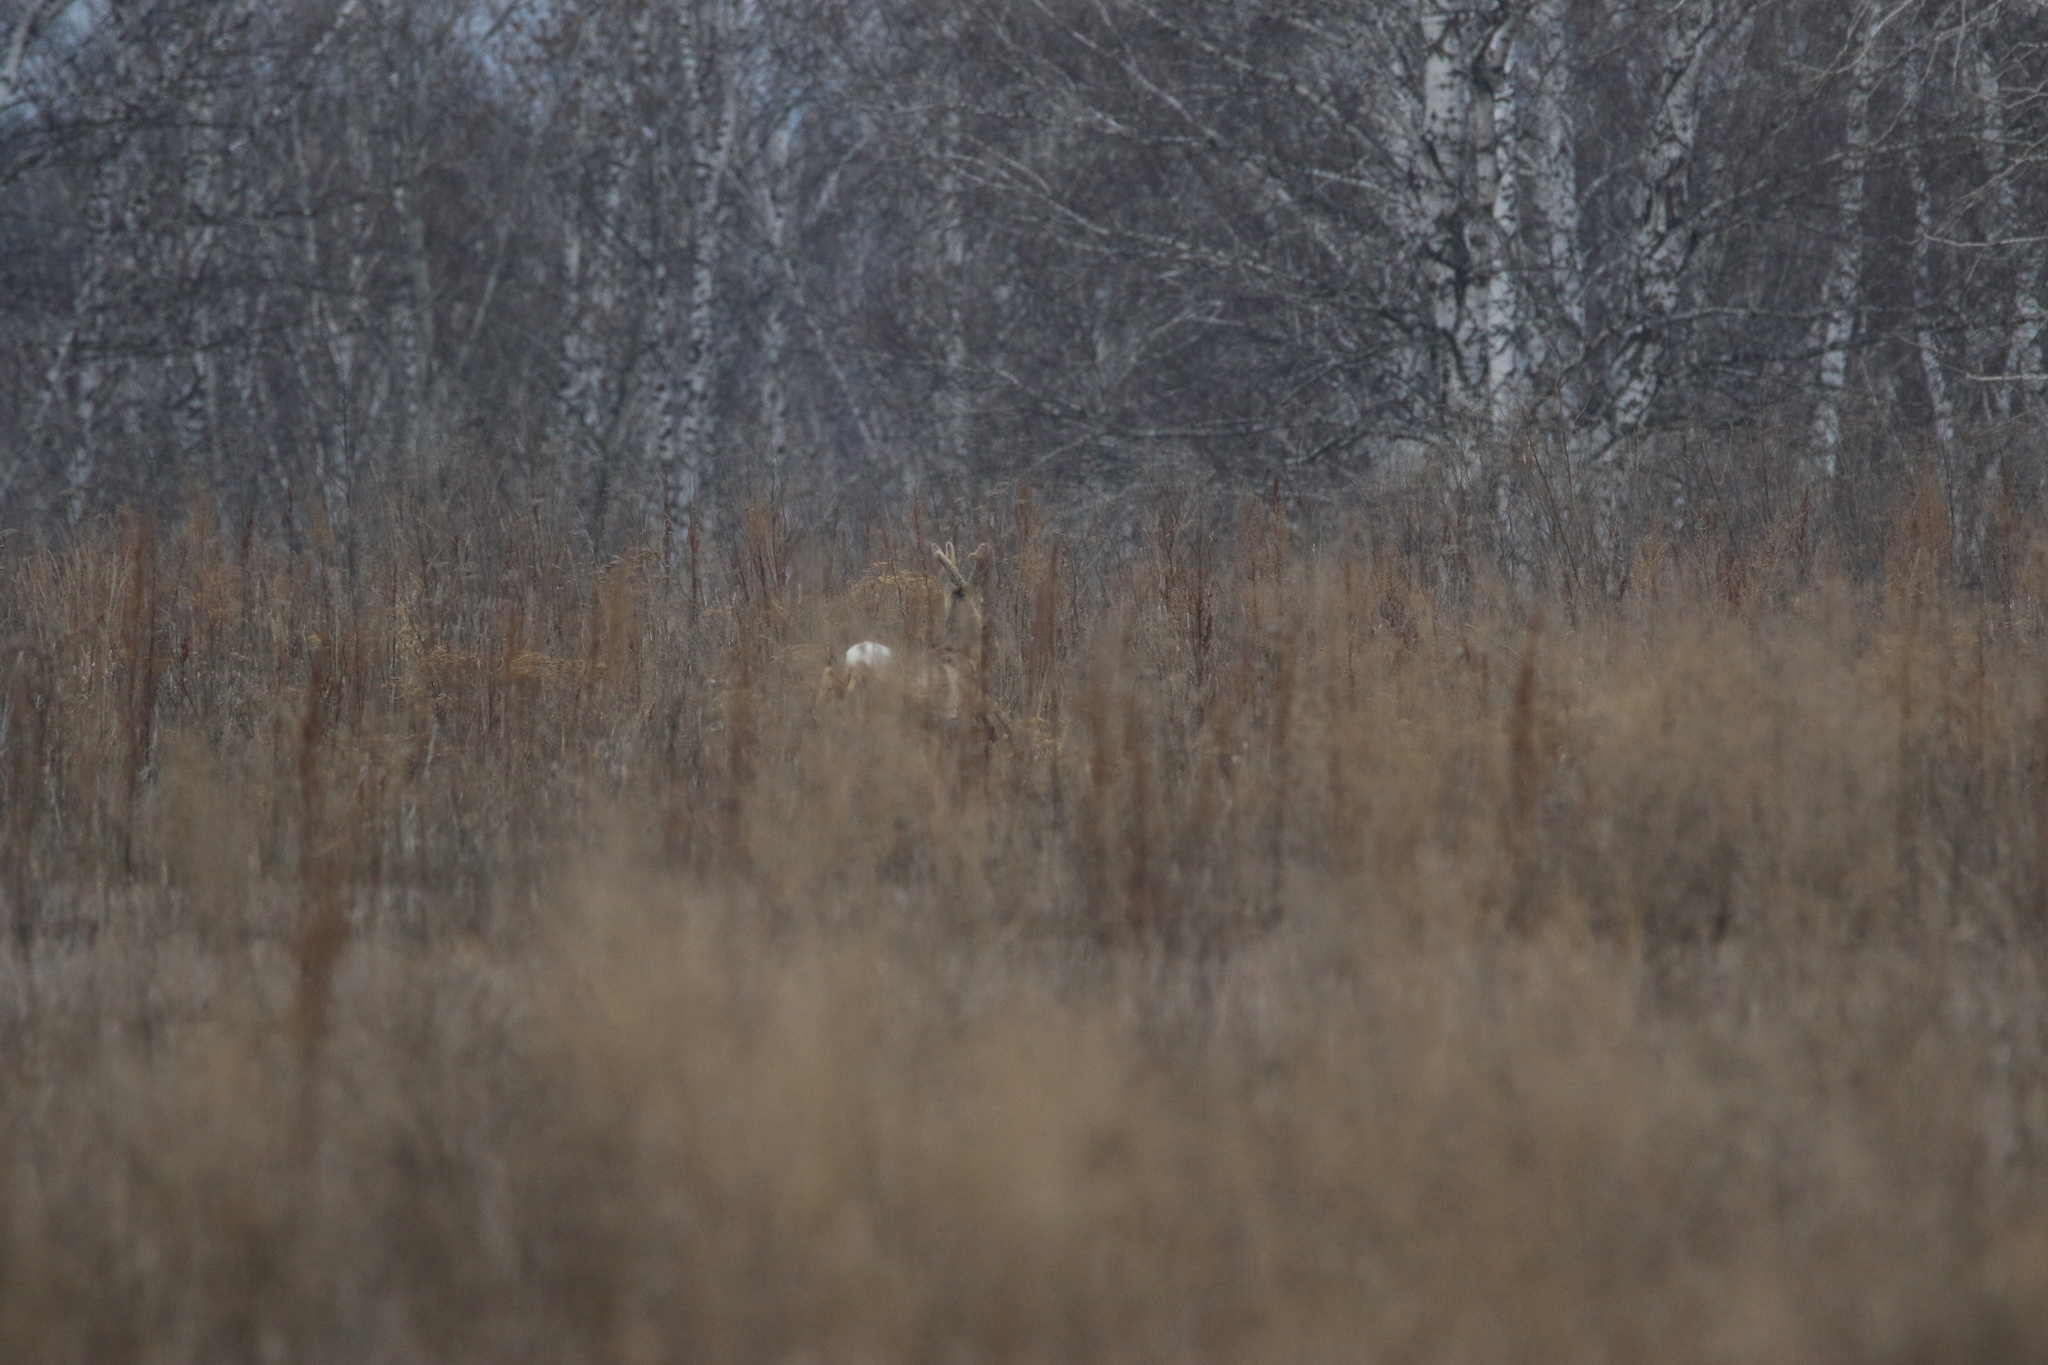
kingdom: Animalia
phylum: Chordata
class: Mammalia
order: Artiodactyla
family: Cervidae
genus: Capreolus
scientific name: Capreolus pygargus
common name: Siberian roe
